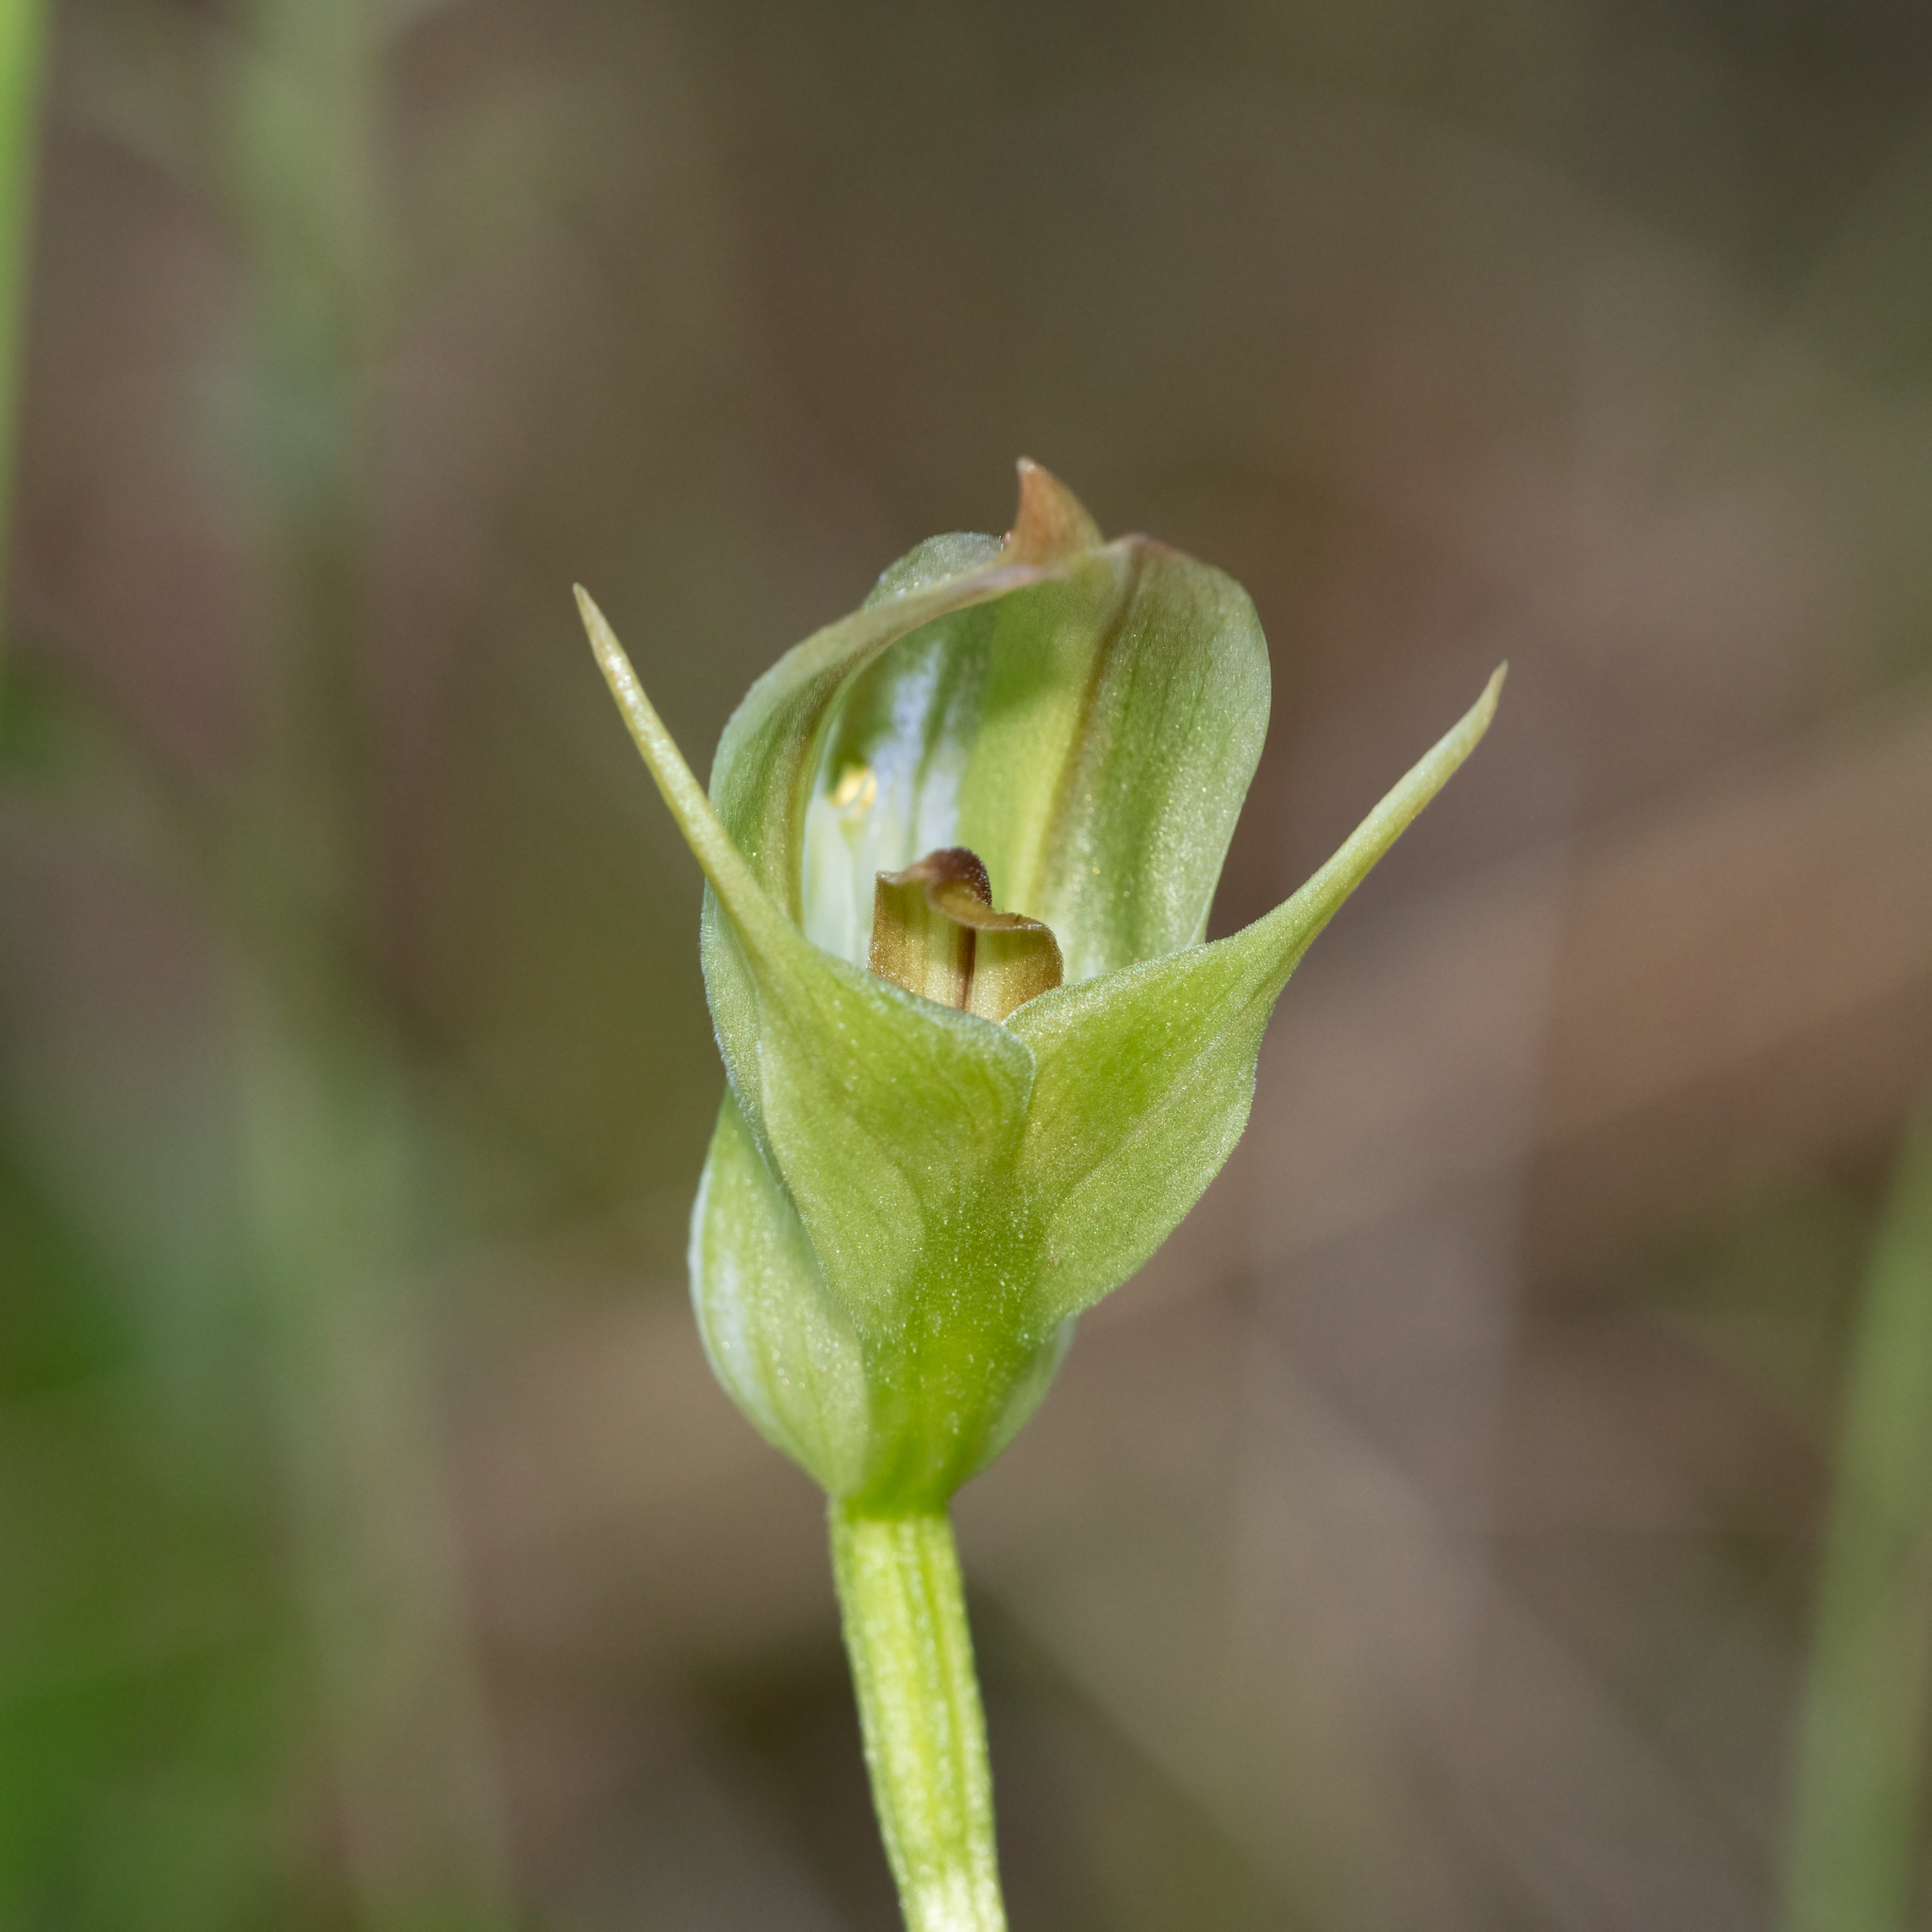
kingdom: Plantae
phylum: Tracheophyta
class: Liliopsida
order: Asparagales
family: Orchidaceae
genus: Pterostylis
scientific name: Pterostylis curta
